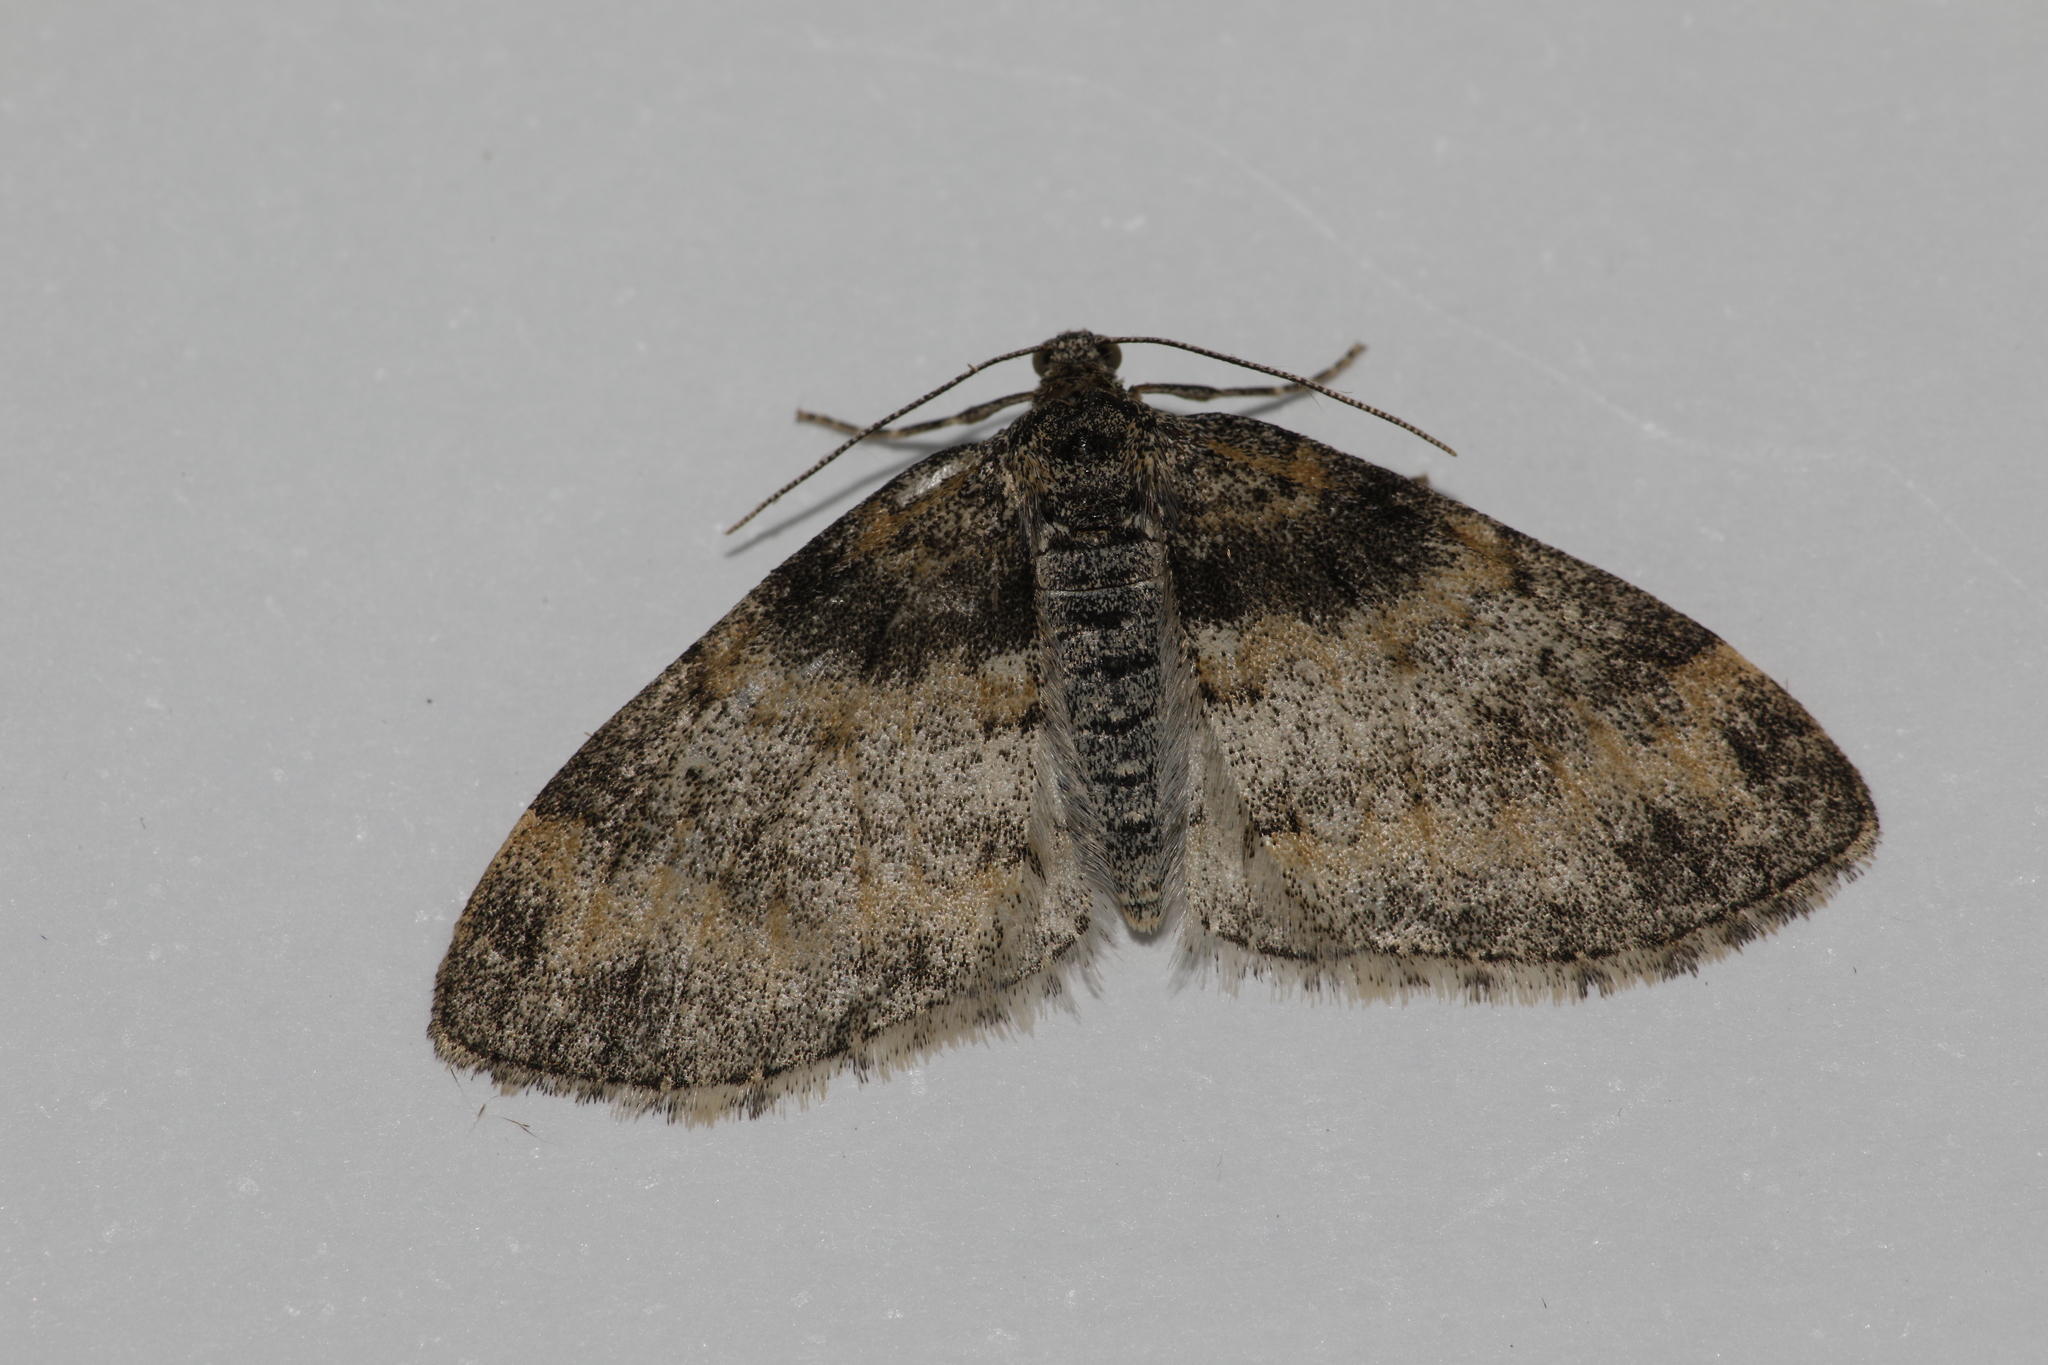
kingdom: Animalia
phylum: Arthropoda
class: Insecta
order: Lepidoptera
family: Geometridae
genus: Lobophora
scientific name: Lobophora halterata
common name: Seraphim
